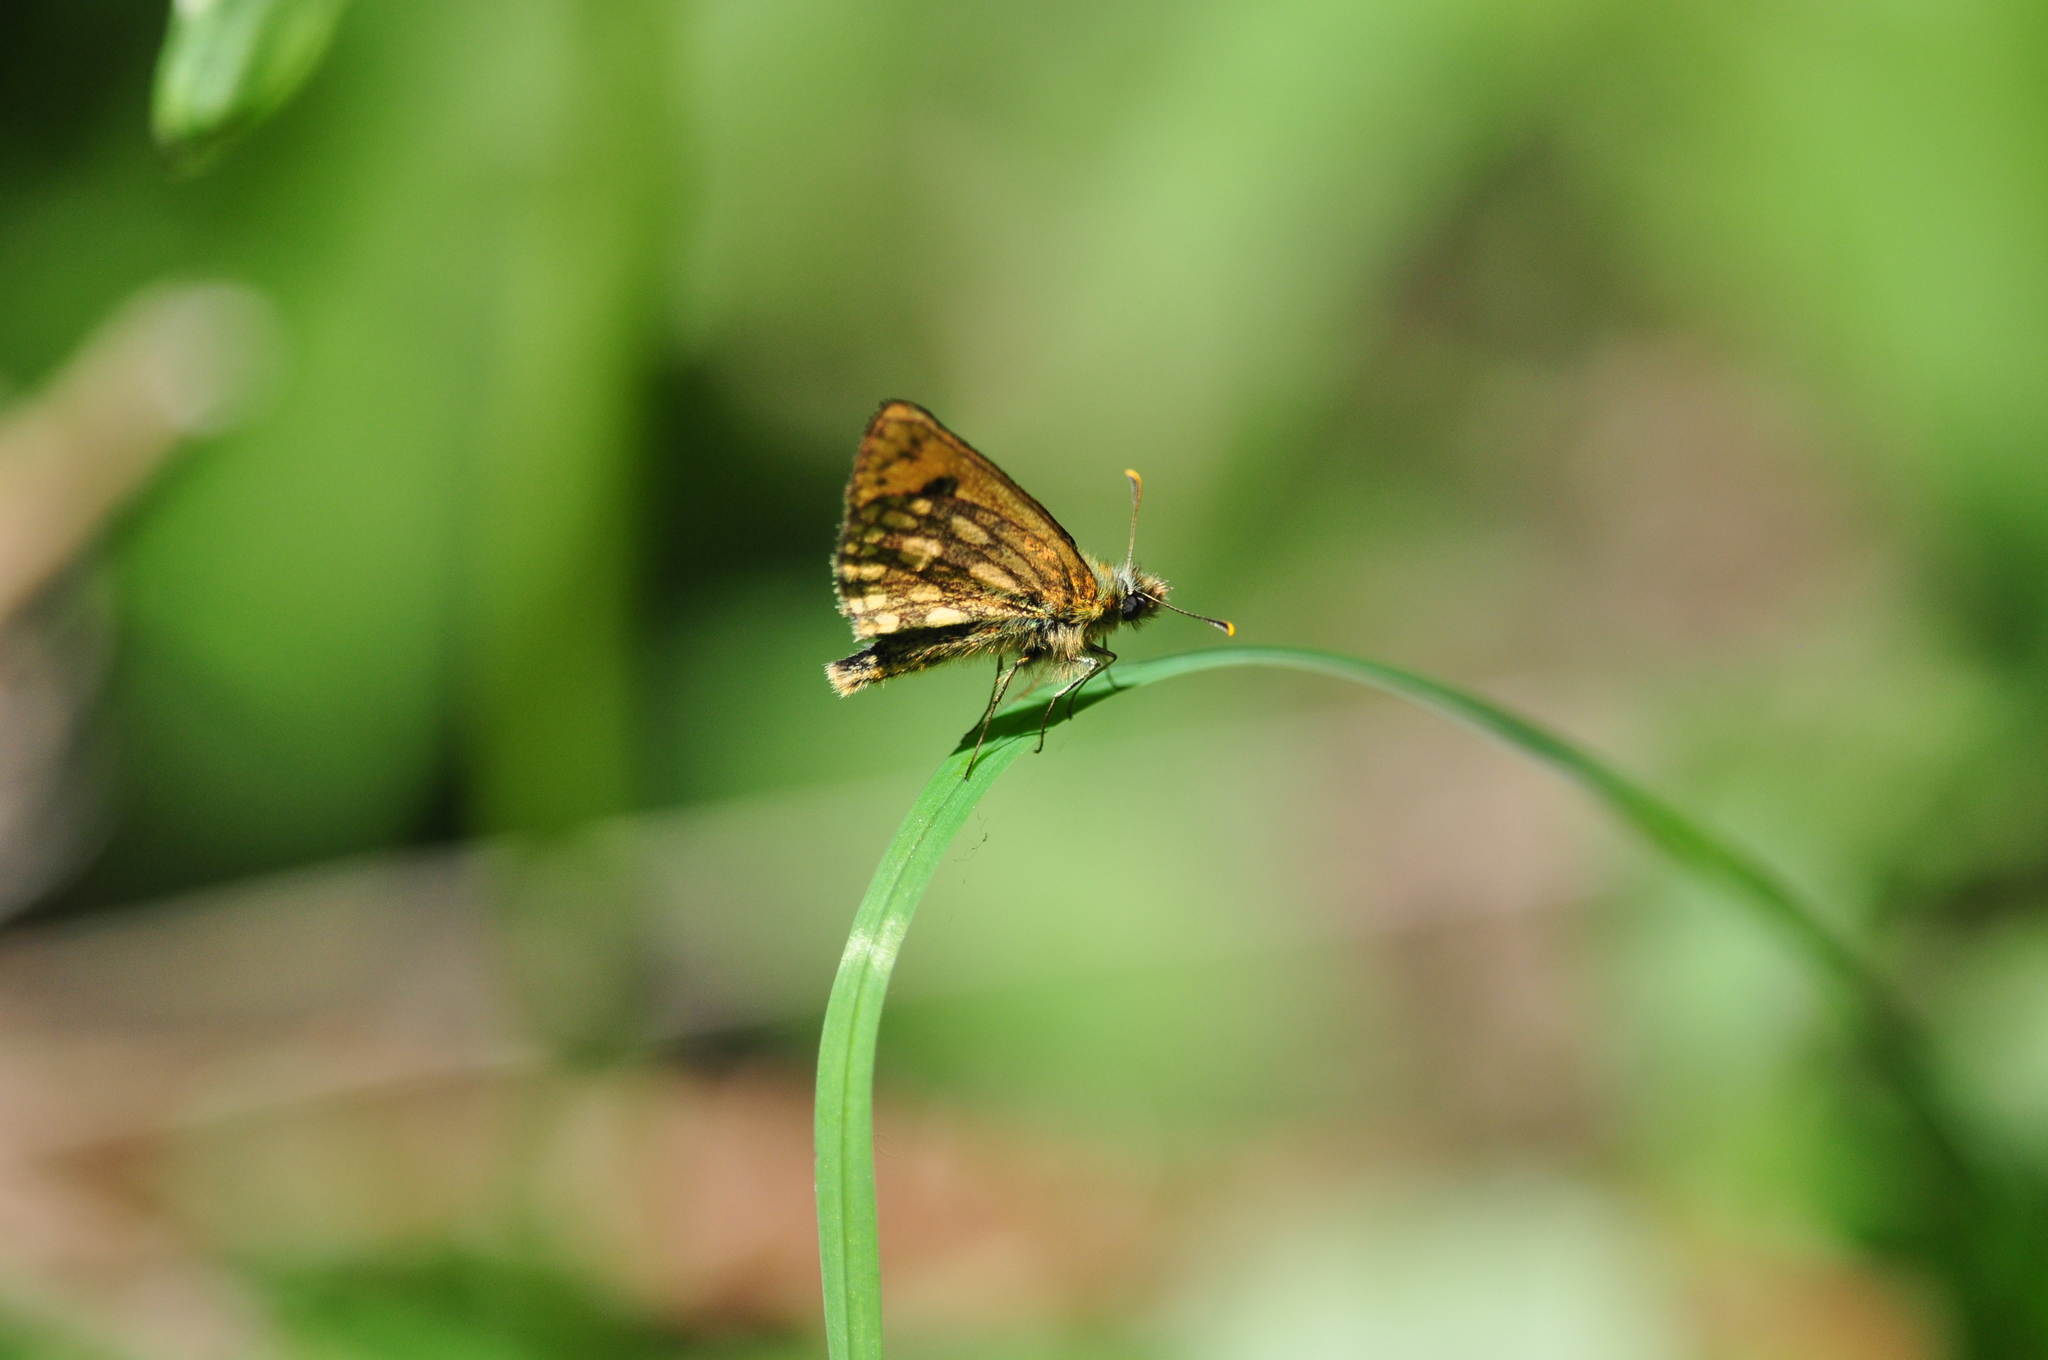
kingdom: Animalia
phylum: Arthropoda
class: Insecta
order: Lepidoptera
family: Hesperiidae
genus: Carterocephalus
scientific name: Carterocephalus silvicola
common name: Northern chequered skipper
